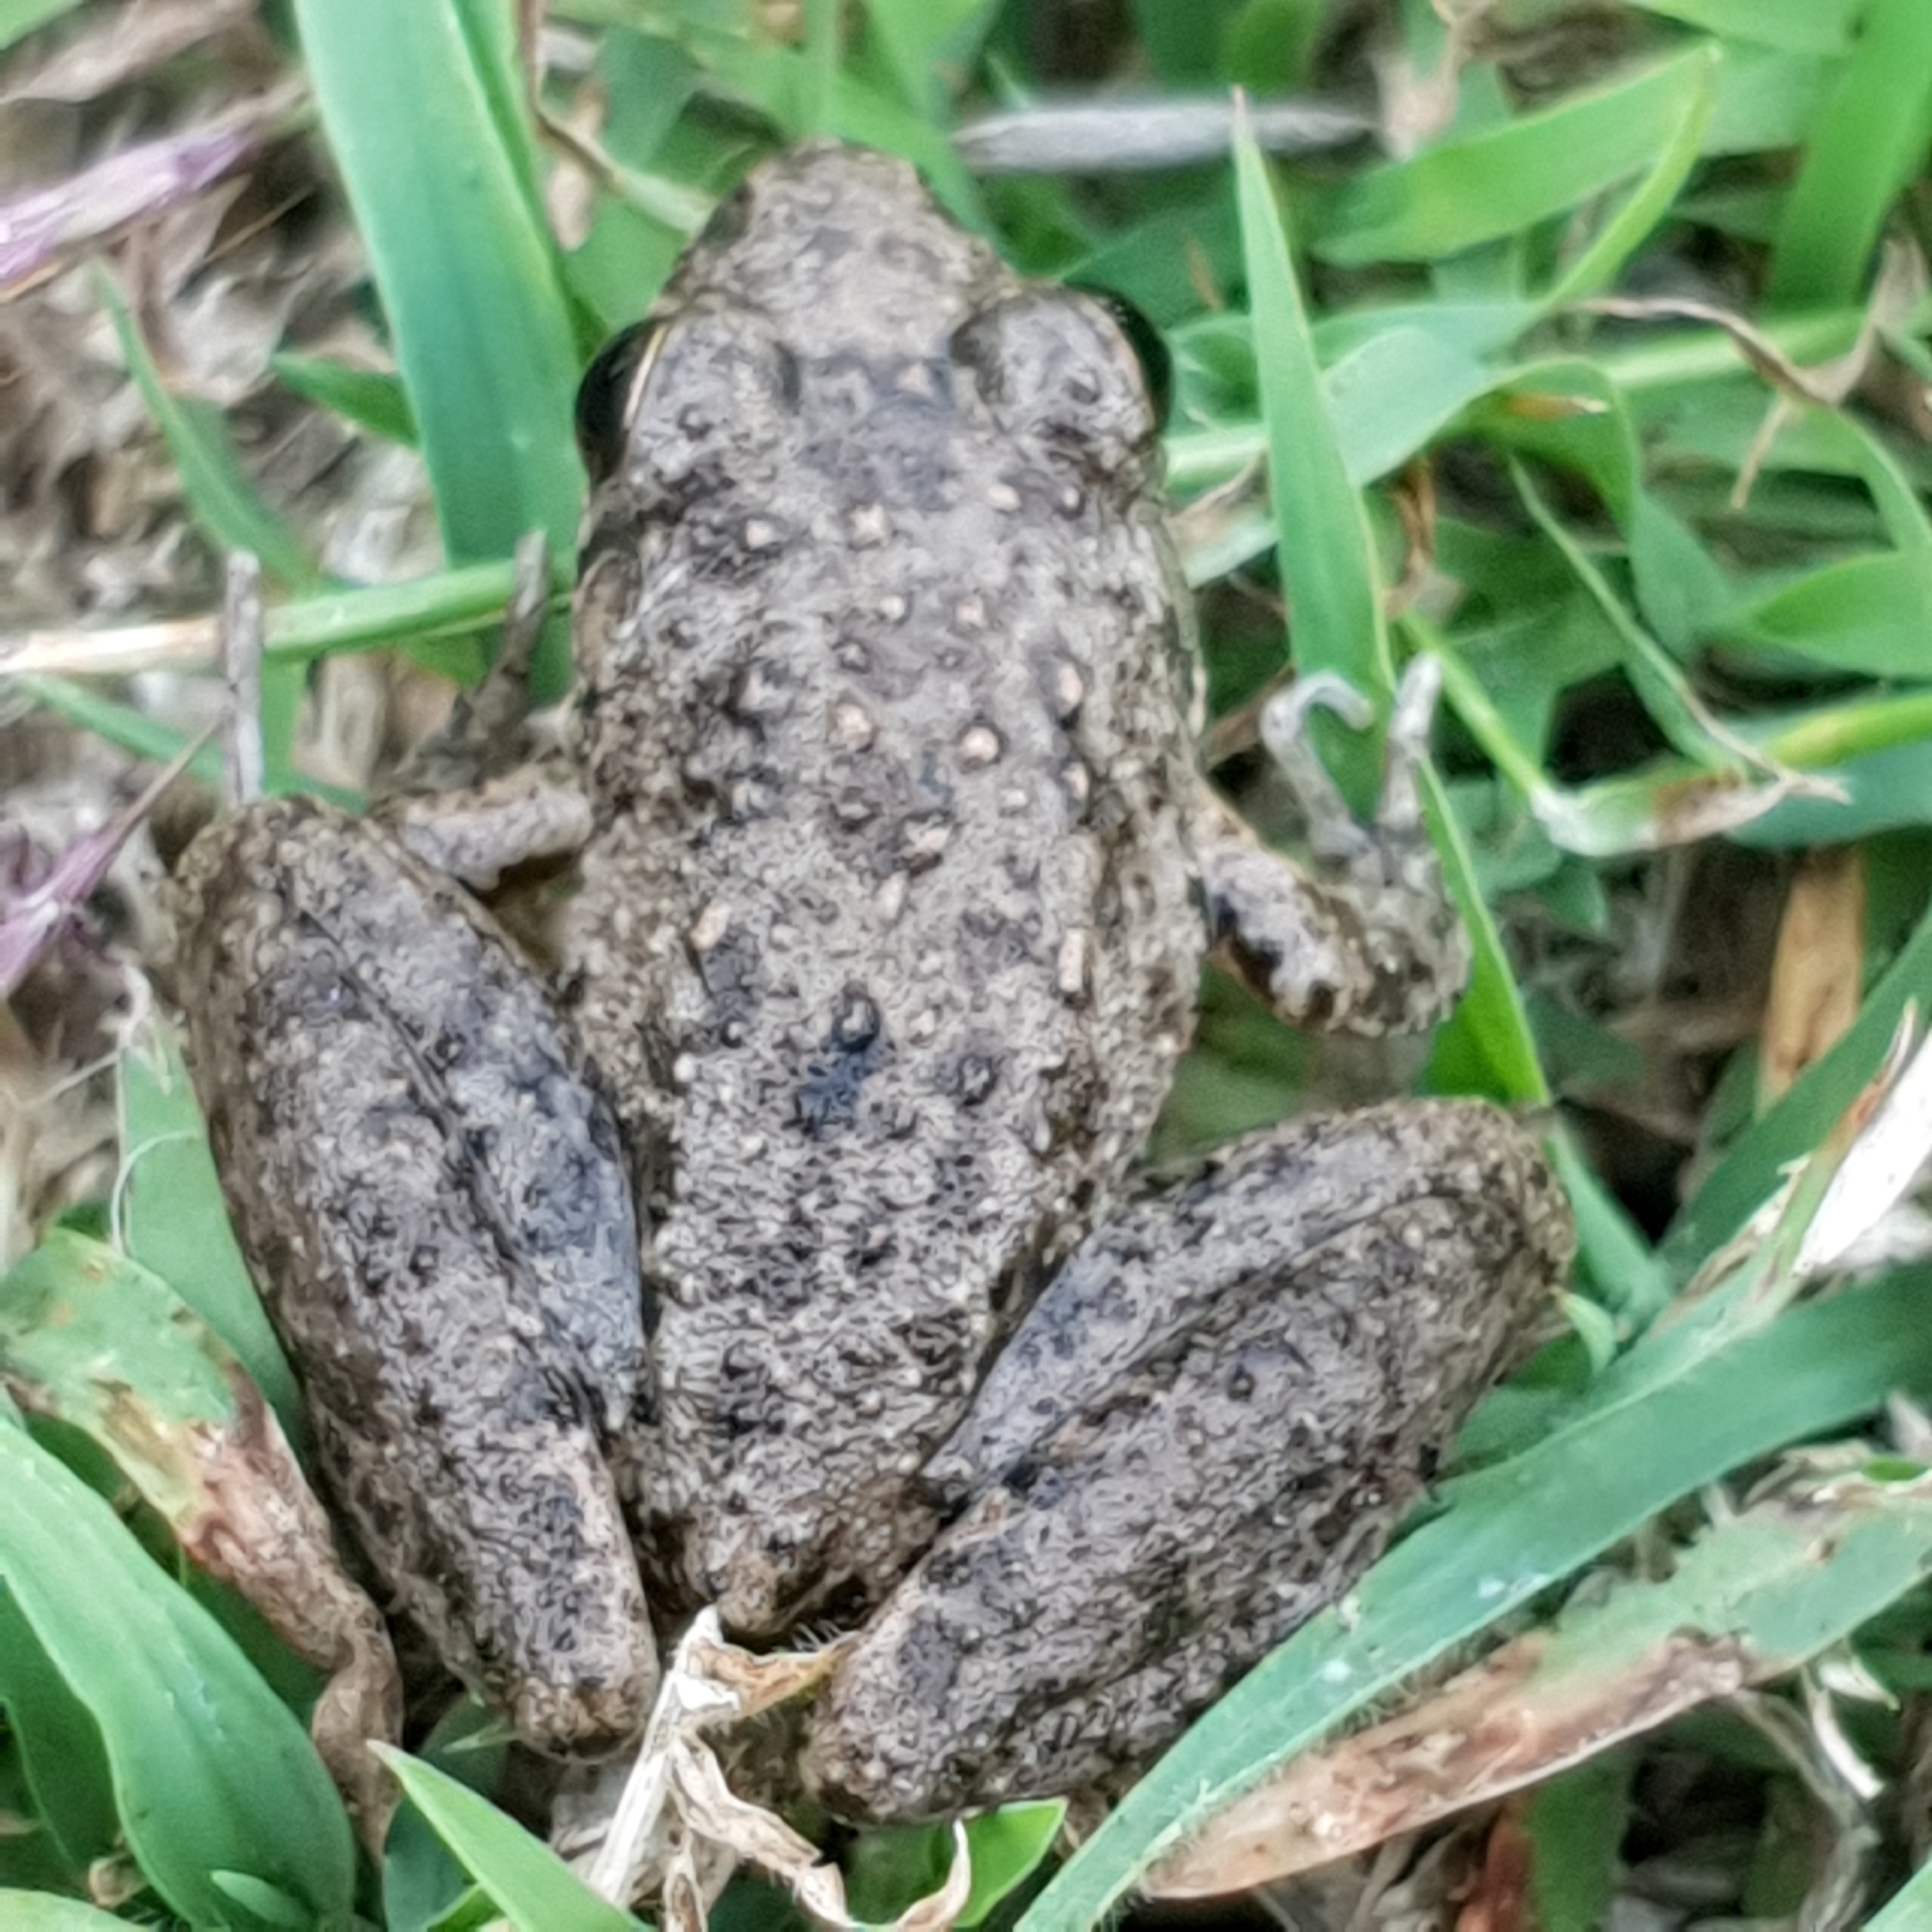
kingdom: Animalia
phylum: Chordata
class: Amphibia
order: Anura
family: Pelodryadidae
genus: Litoria
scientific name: Litoria inermis
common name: Bumpy rocket frog
